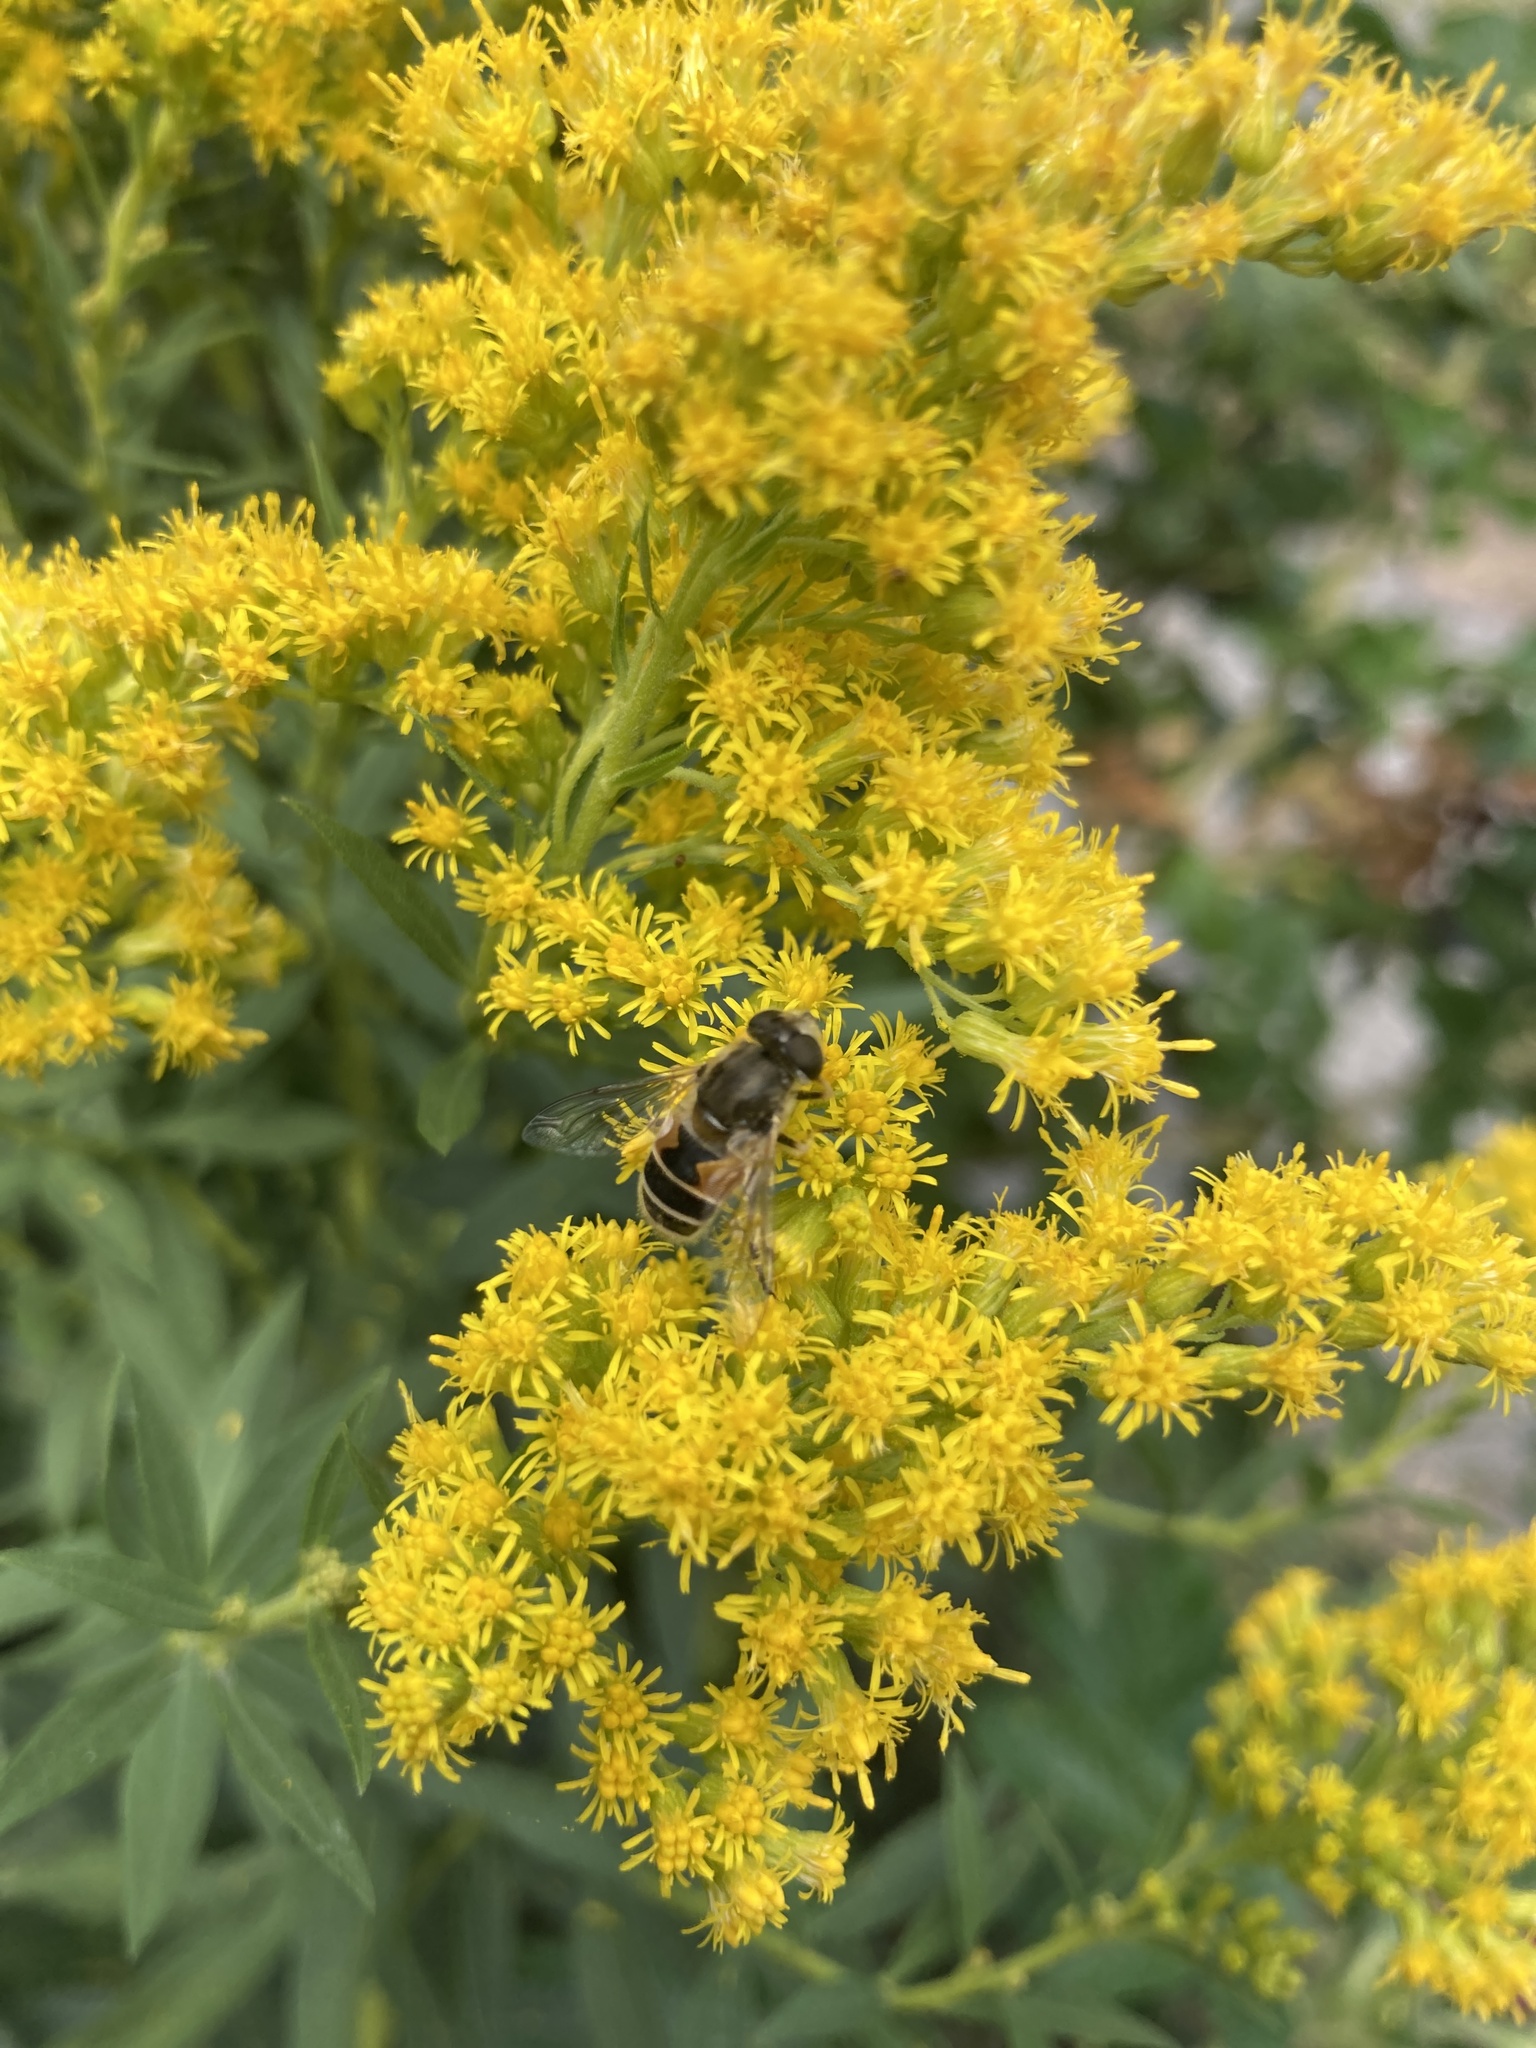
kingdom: Animalia
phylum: Arthropoda
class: Insecta
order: Diptera
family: Syrphidae
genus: Eristalis
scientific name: Eristalis arbustorum
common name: Hover fly
